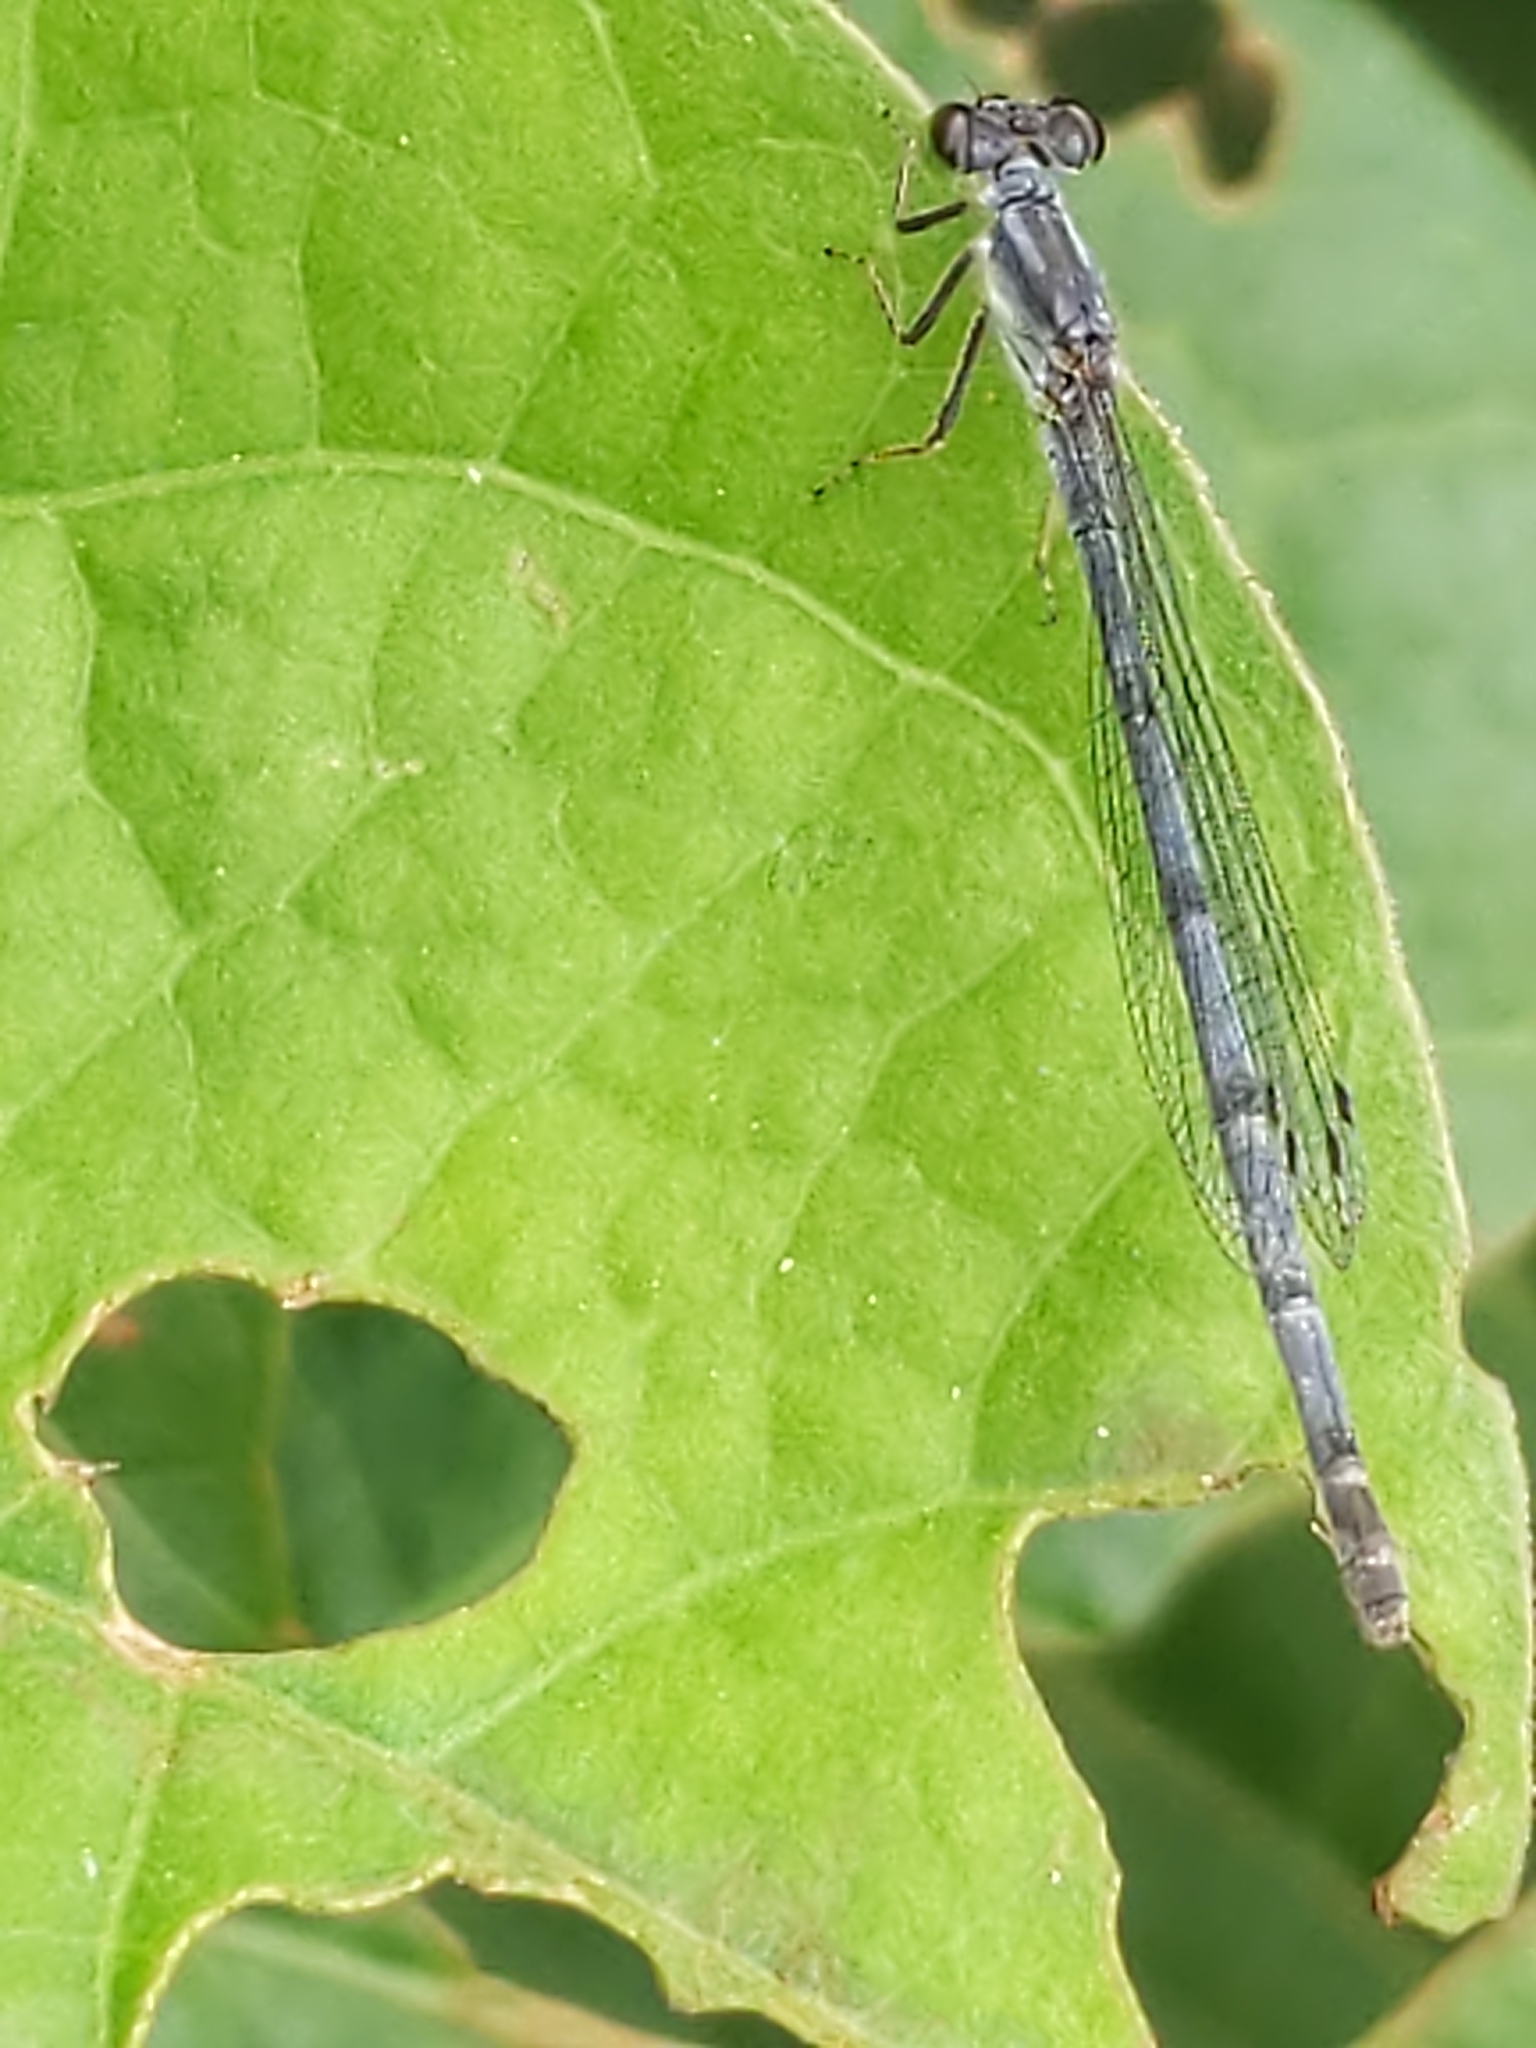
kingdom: Animalia
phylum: Arthropoda
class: Insecta
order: Odonata
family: Coenagrionidae
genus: Ischnura
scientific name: Ischnura posita
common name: Fragile forktail
